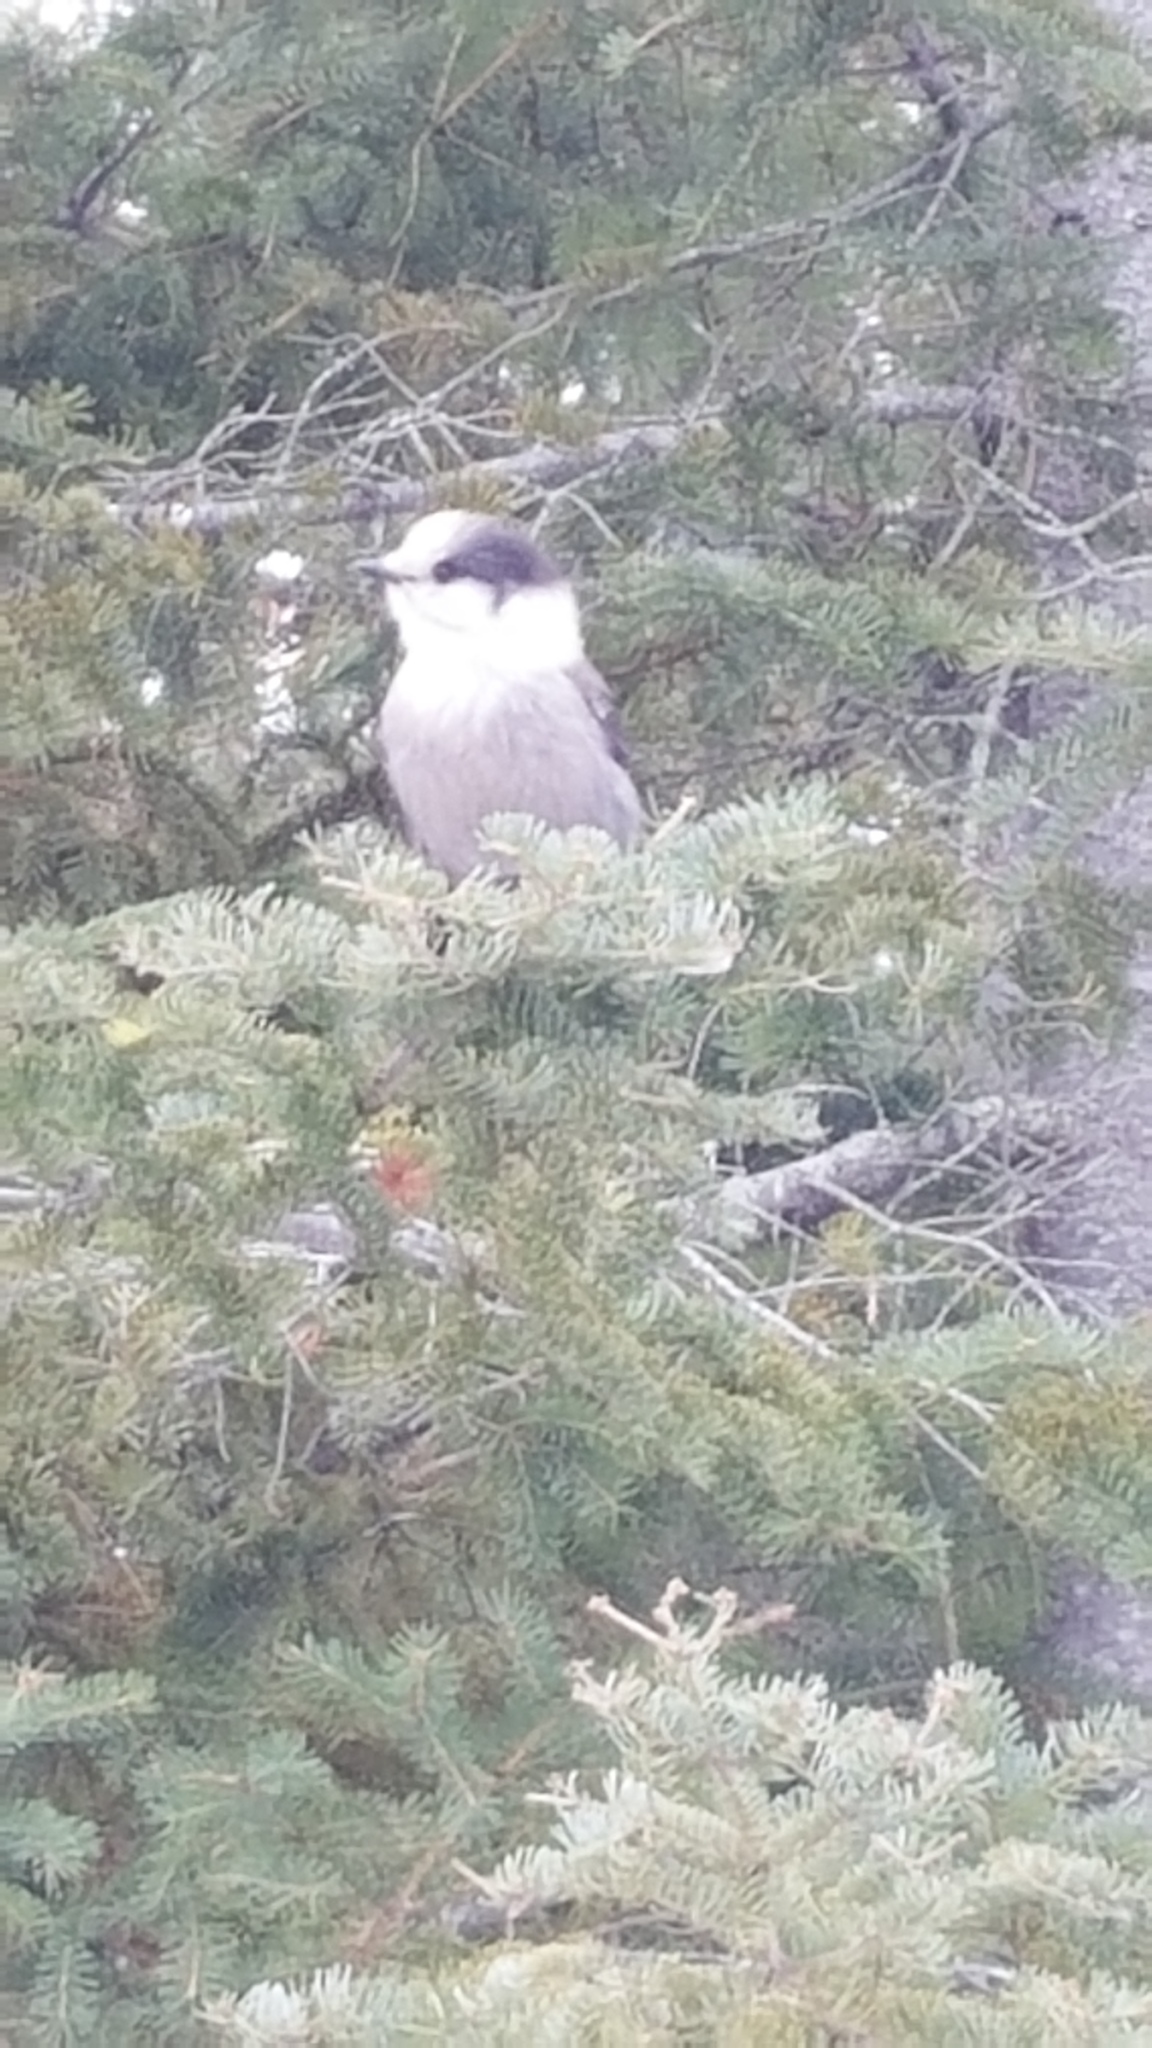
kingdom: Animalia
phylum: Chordata
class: Aves
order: Passeriformes
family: Corvidae
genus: Perisoreus
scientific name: Perisoreus canadensis
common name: Gray jay
